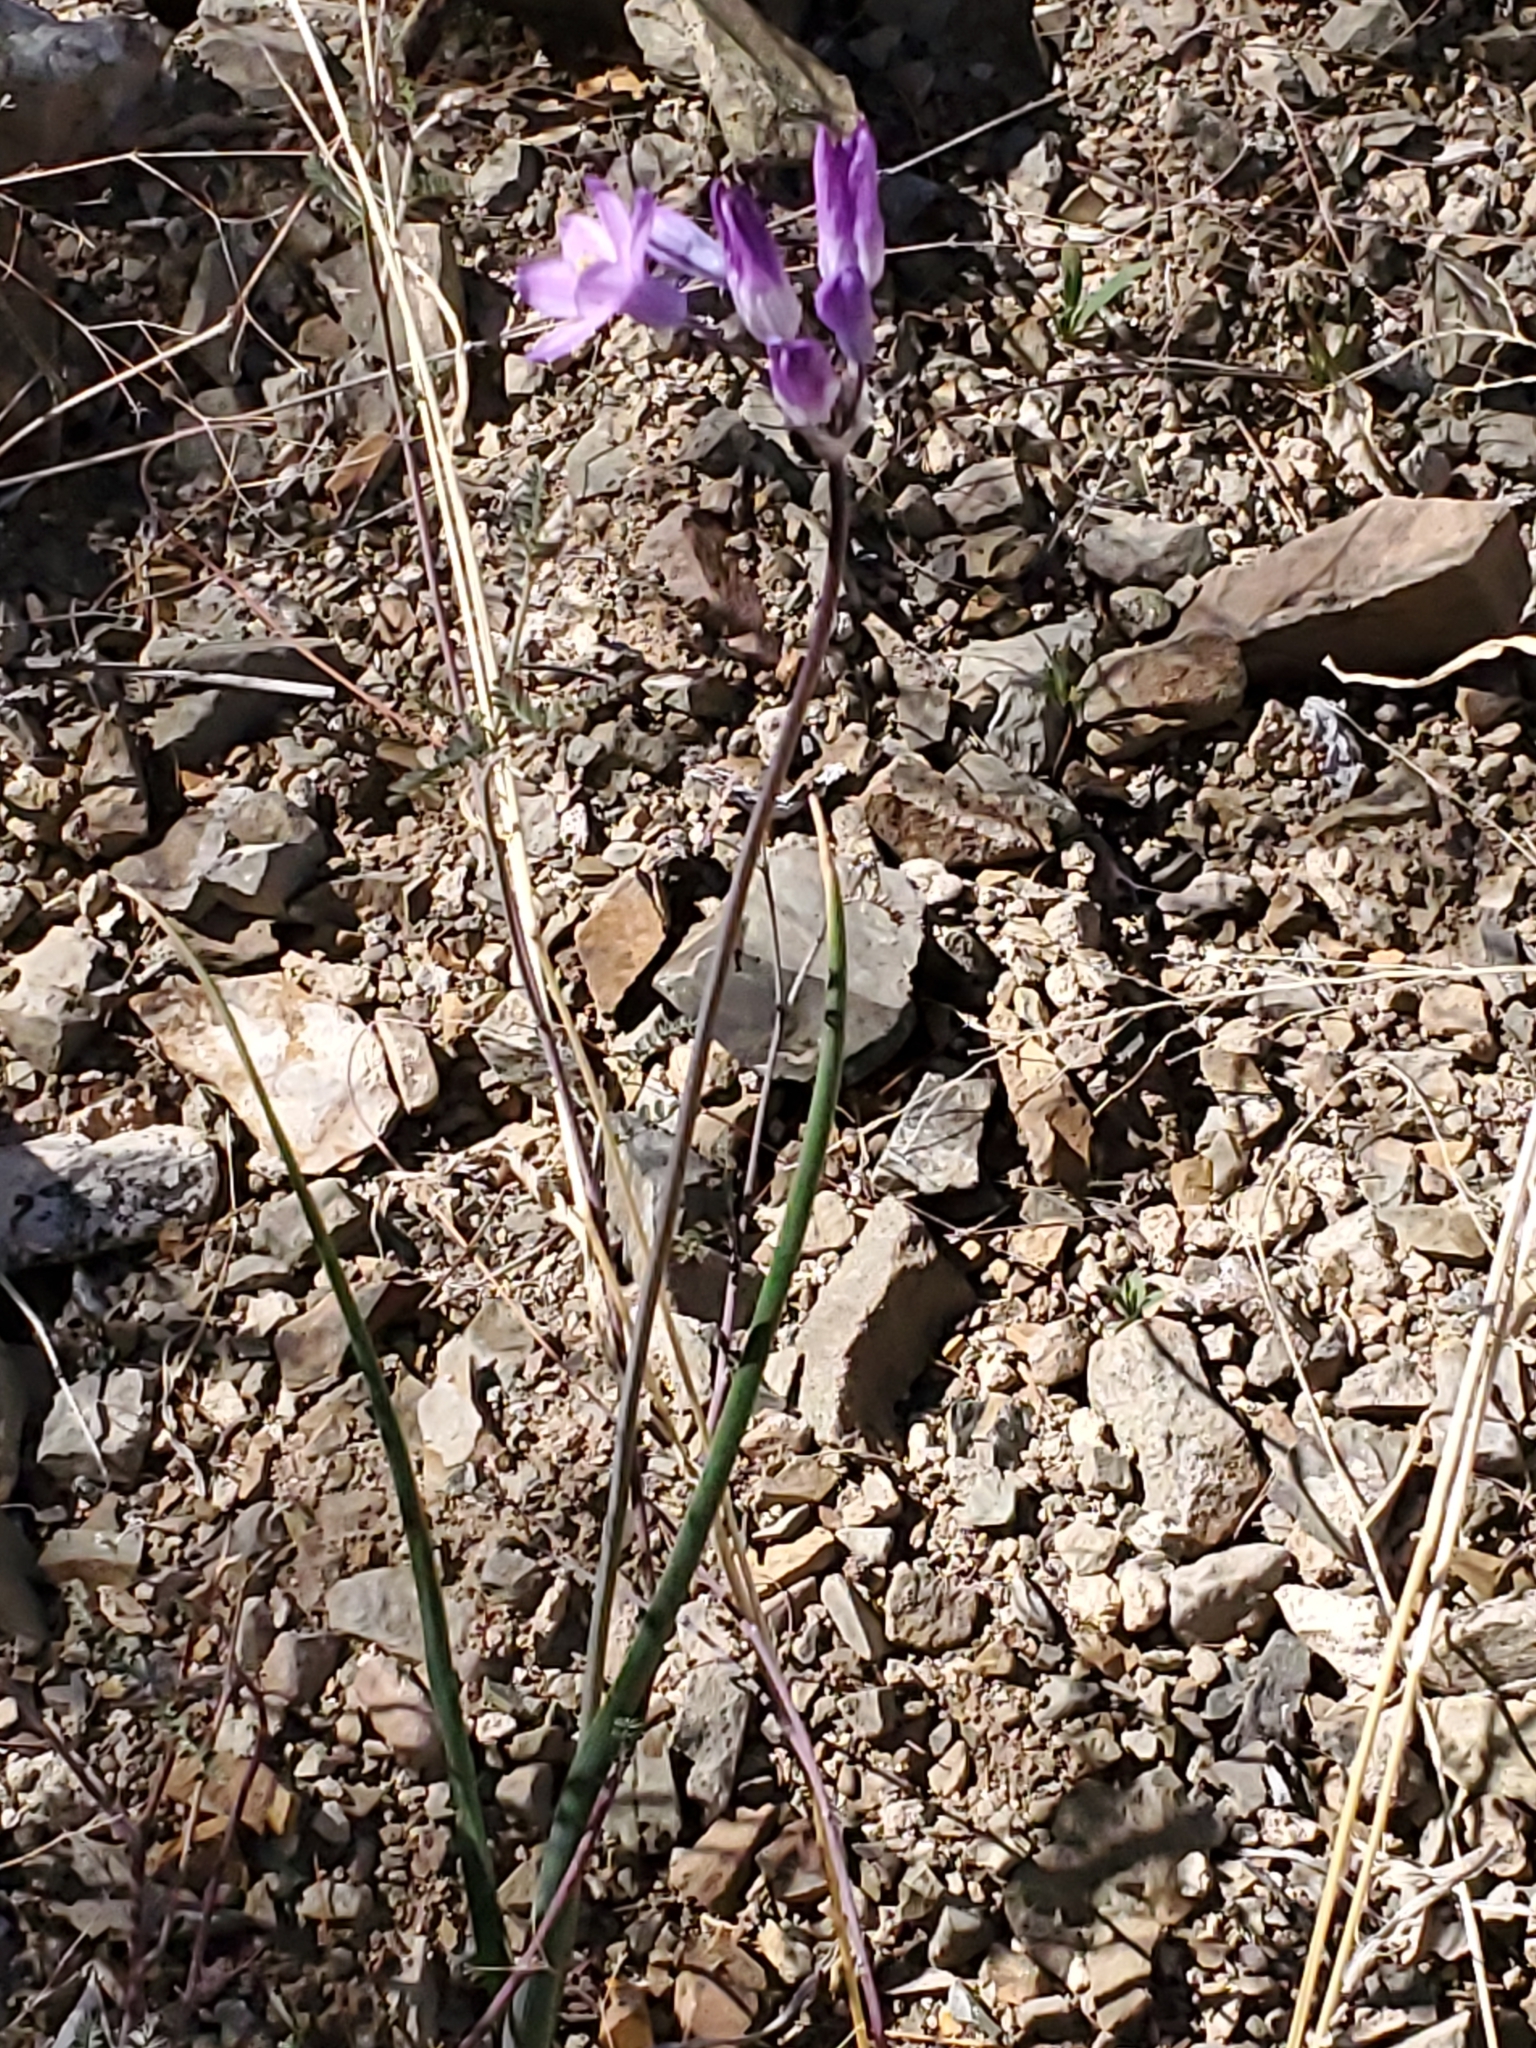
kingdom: Plantae
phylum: Tracheophyta
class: Liliopsida
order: Asparagales
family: Asparagaceae
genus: Dipterostemon
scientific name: Dipterostemon capitatus
